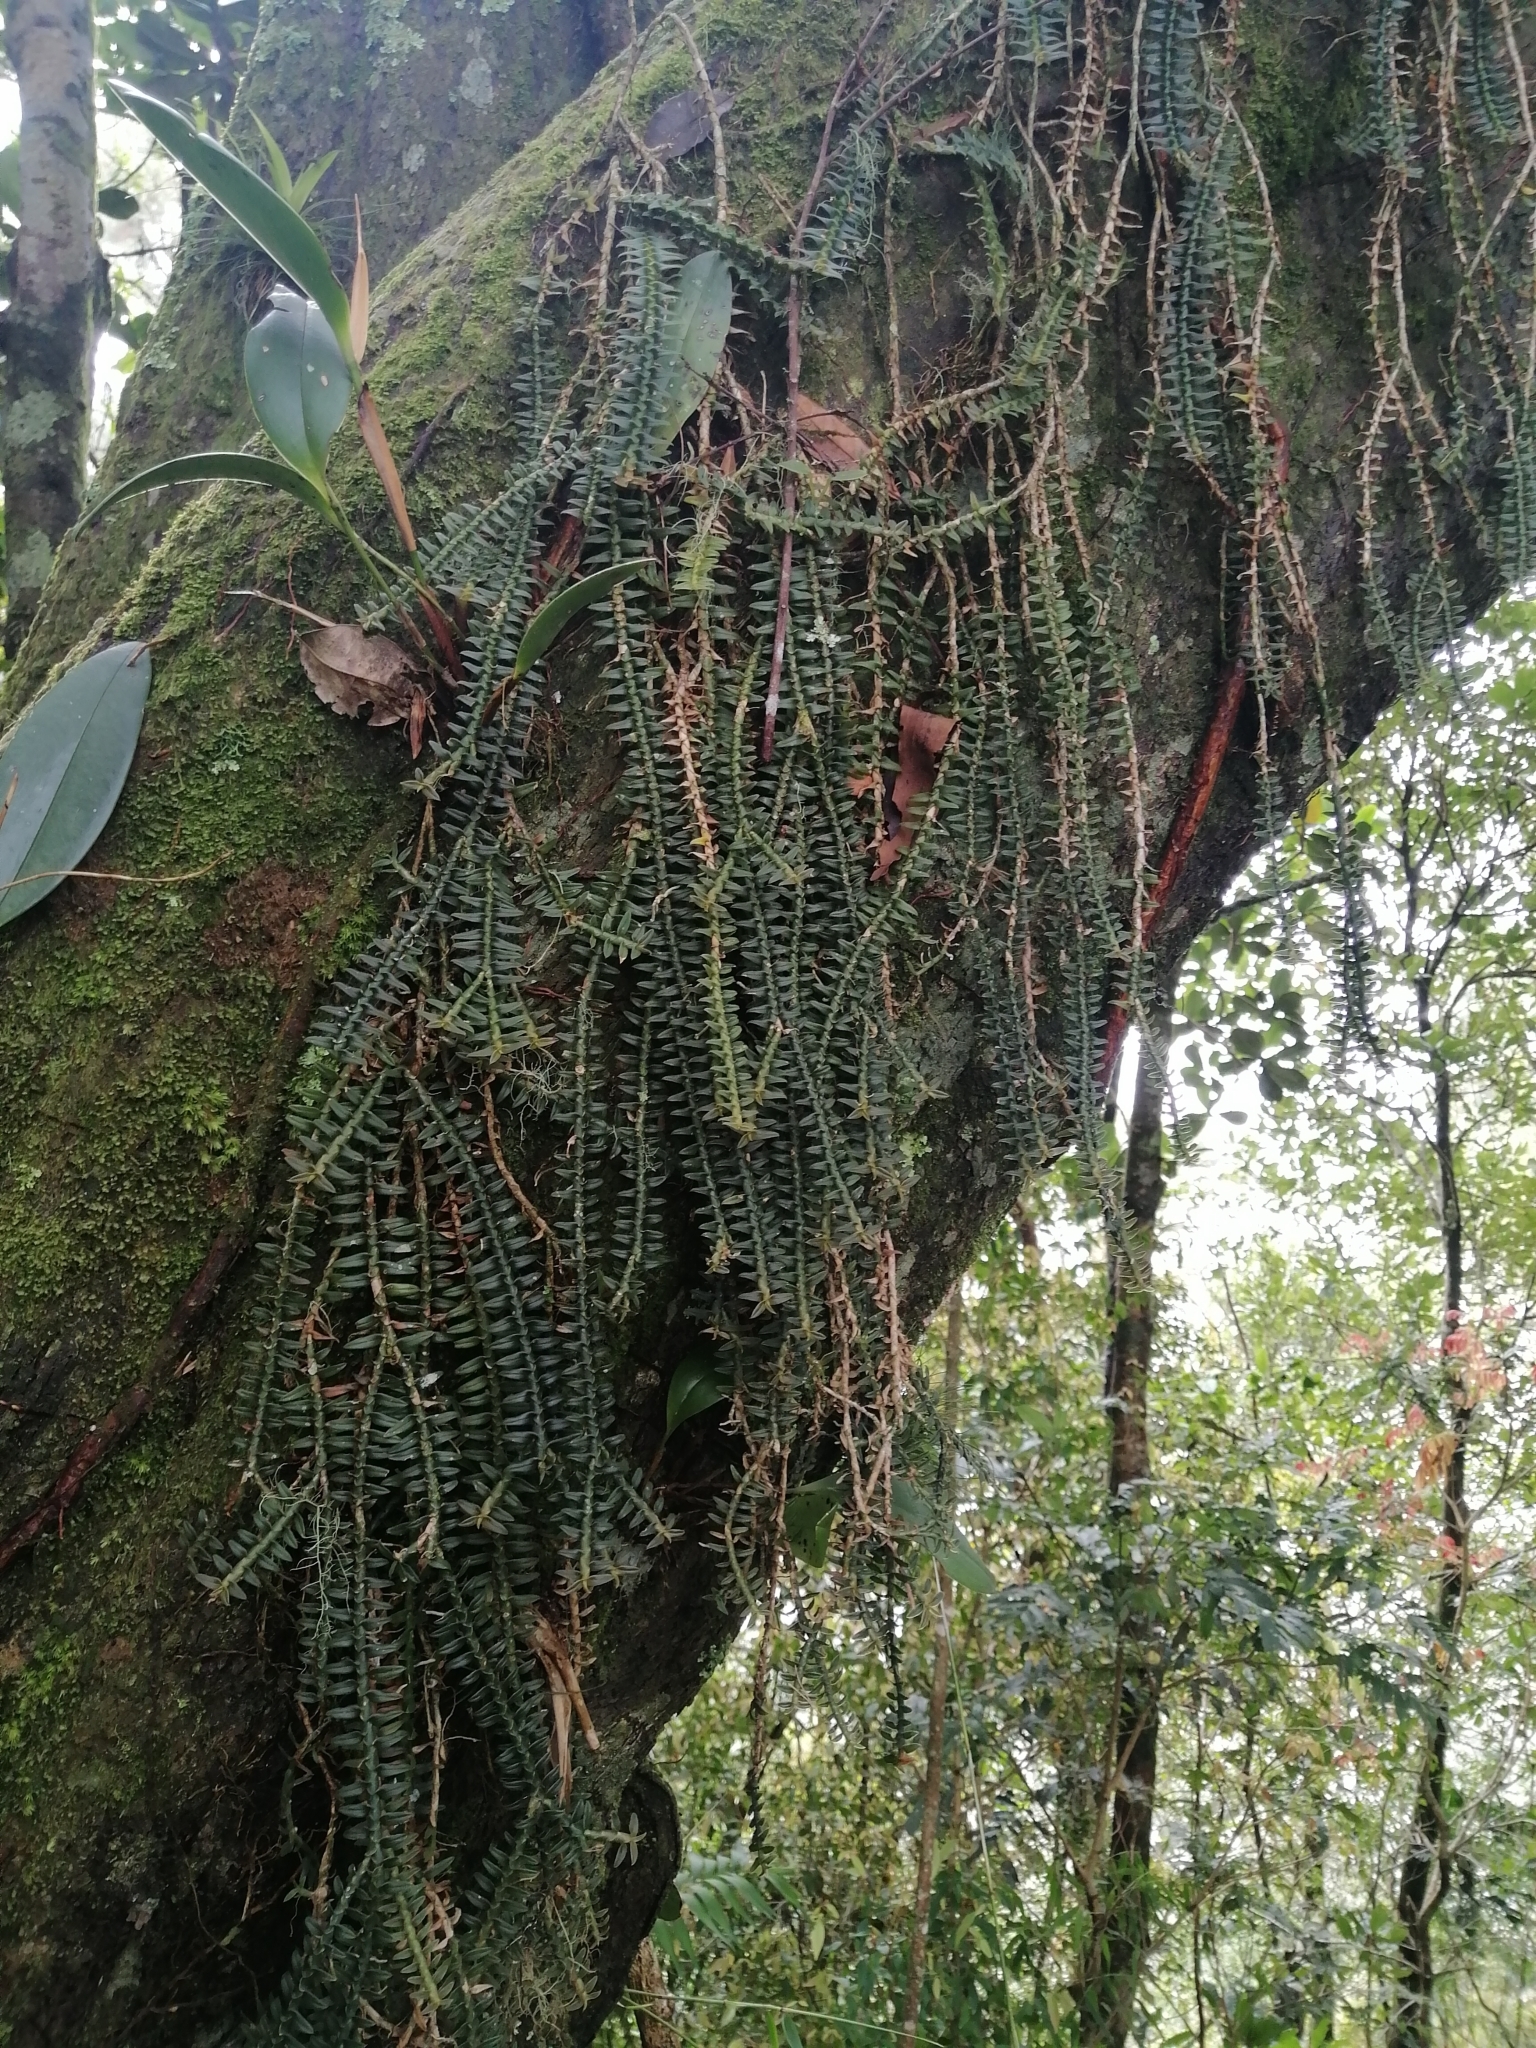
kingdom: Plantae
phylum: Tracheophyta
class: Liliopsida
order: Asparagales
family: Orchidaceae
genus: Dichaea
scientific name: Dichaea muricatoides
